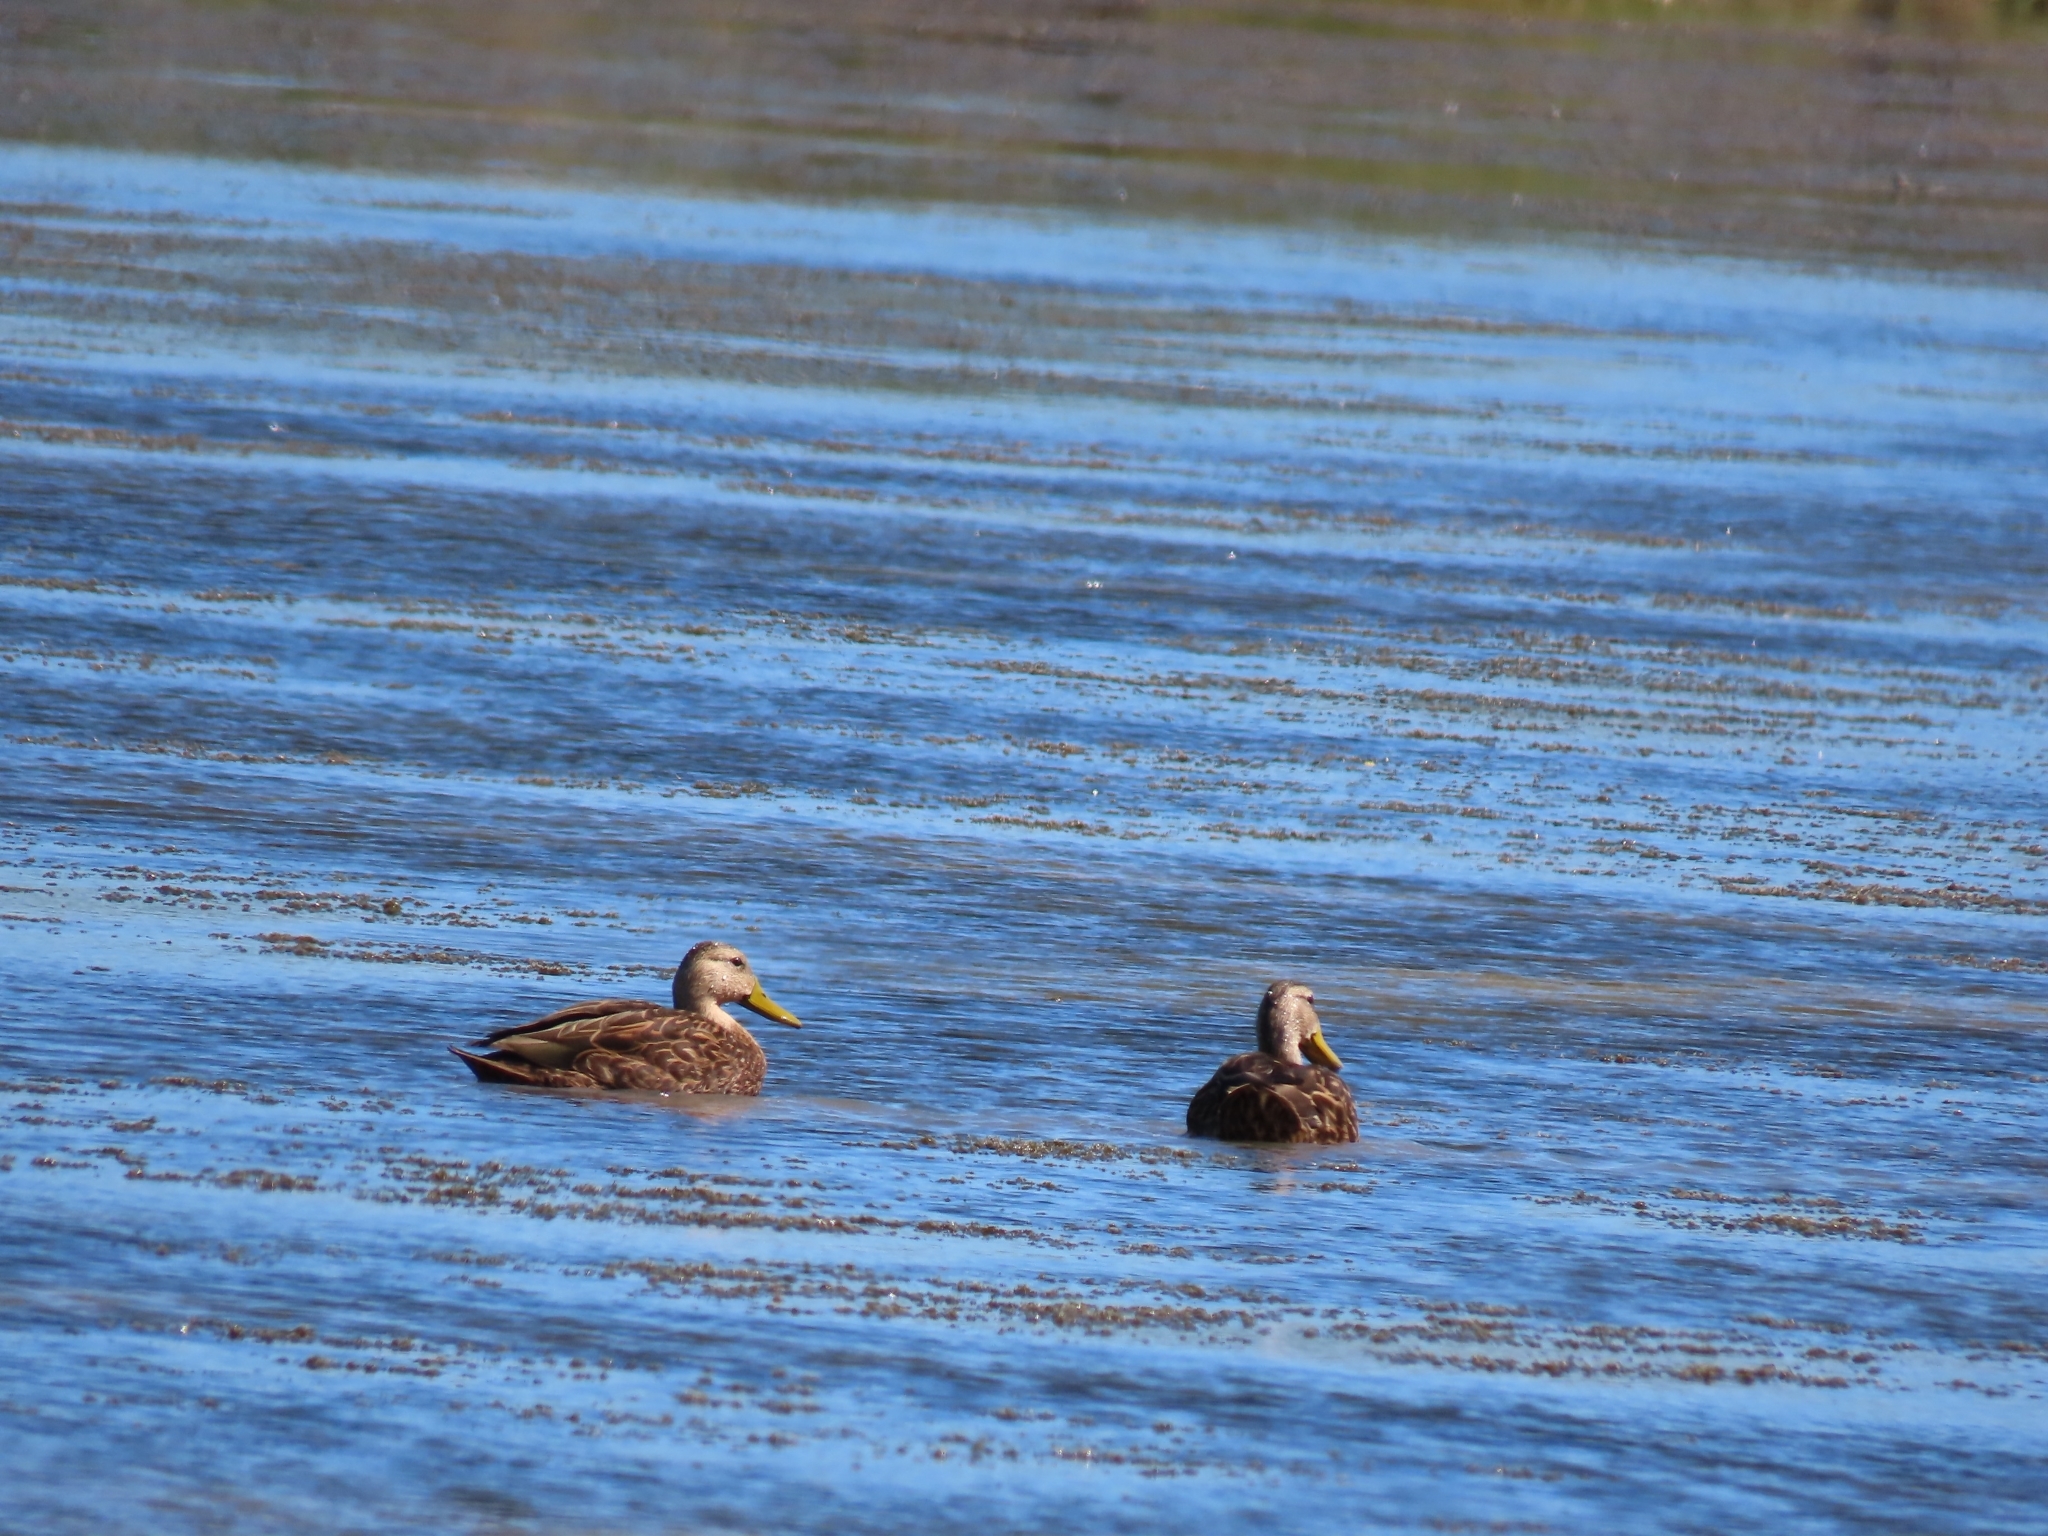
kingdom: Animalia
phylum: Chordata
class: Aves
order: Anseriformes
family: Anatidae
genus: Anas
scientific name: Anas fulvigula
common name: Mottled duck
